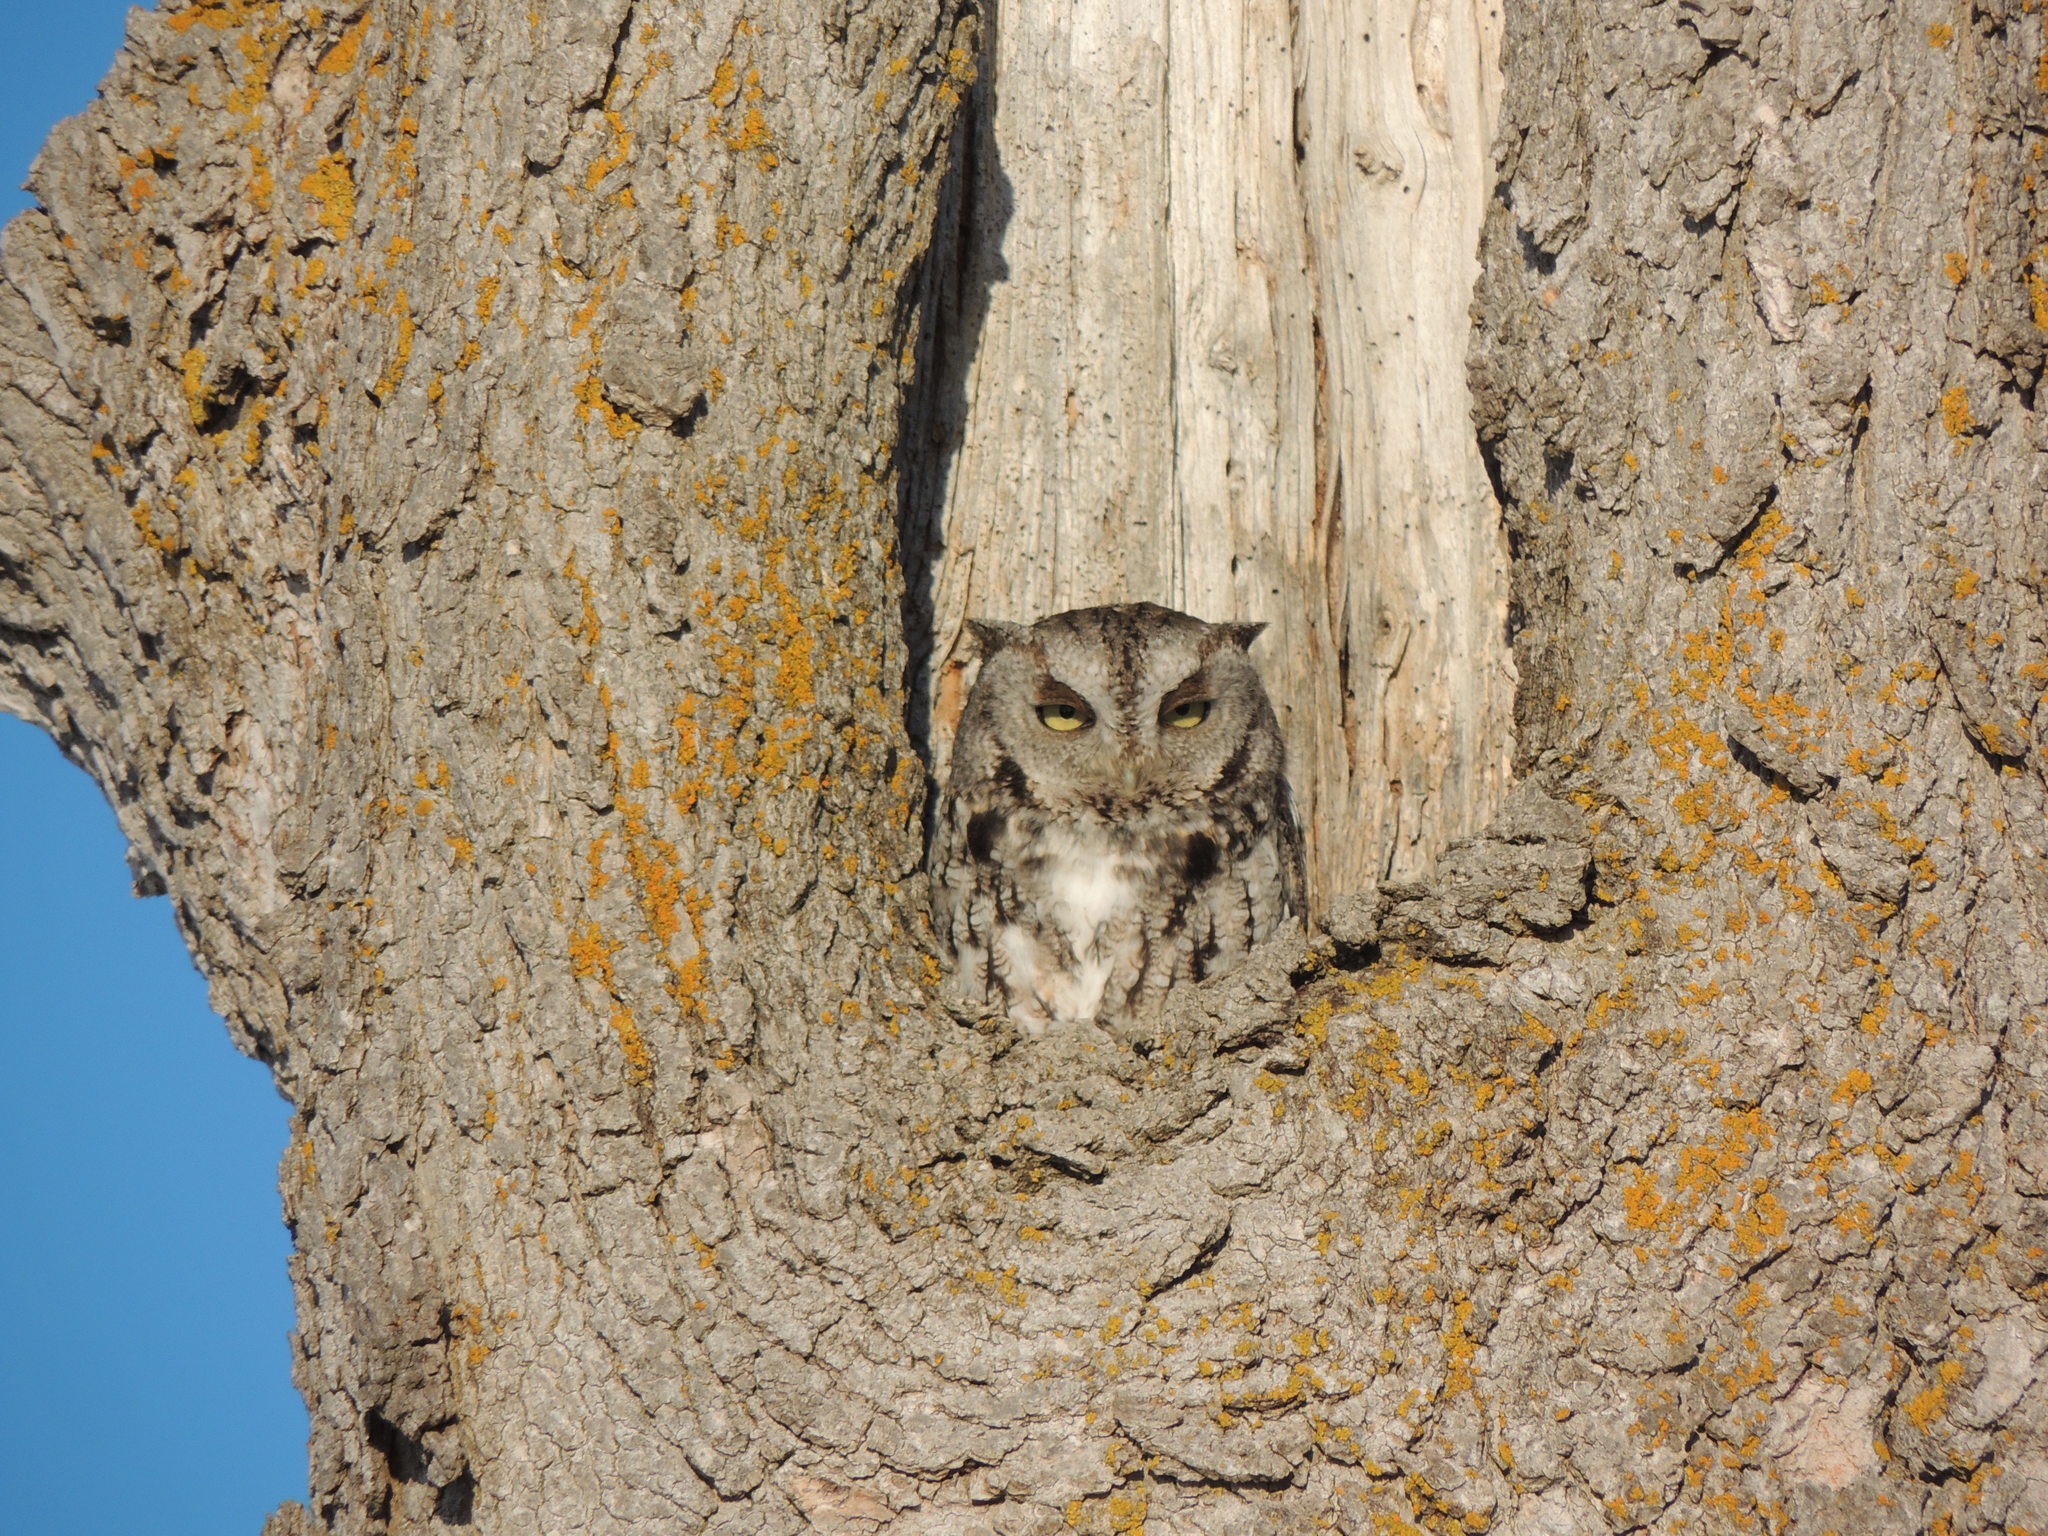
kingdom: Animalia
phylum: Chordata
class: Aves
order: Strigiformes
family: Strigidae
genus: Megascops
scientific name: Megascops asio
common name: Eastern screech-owl
